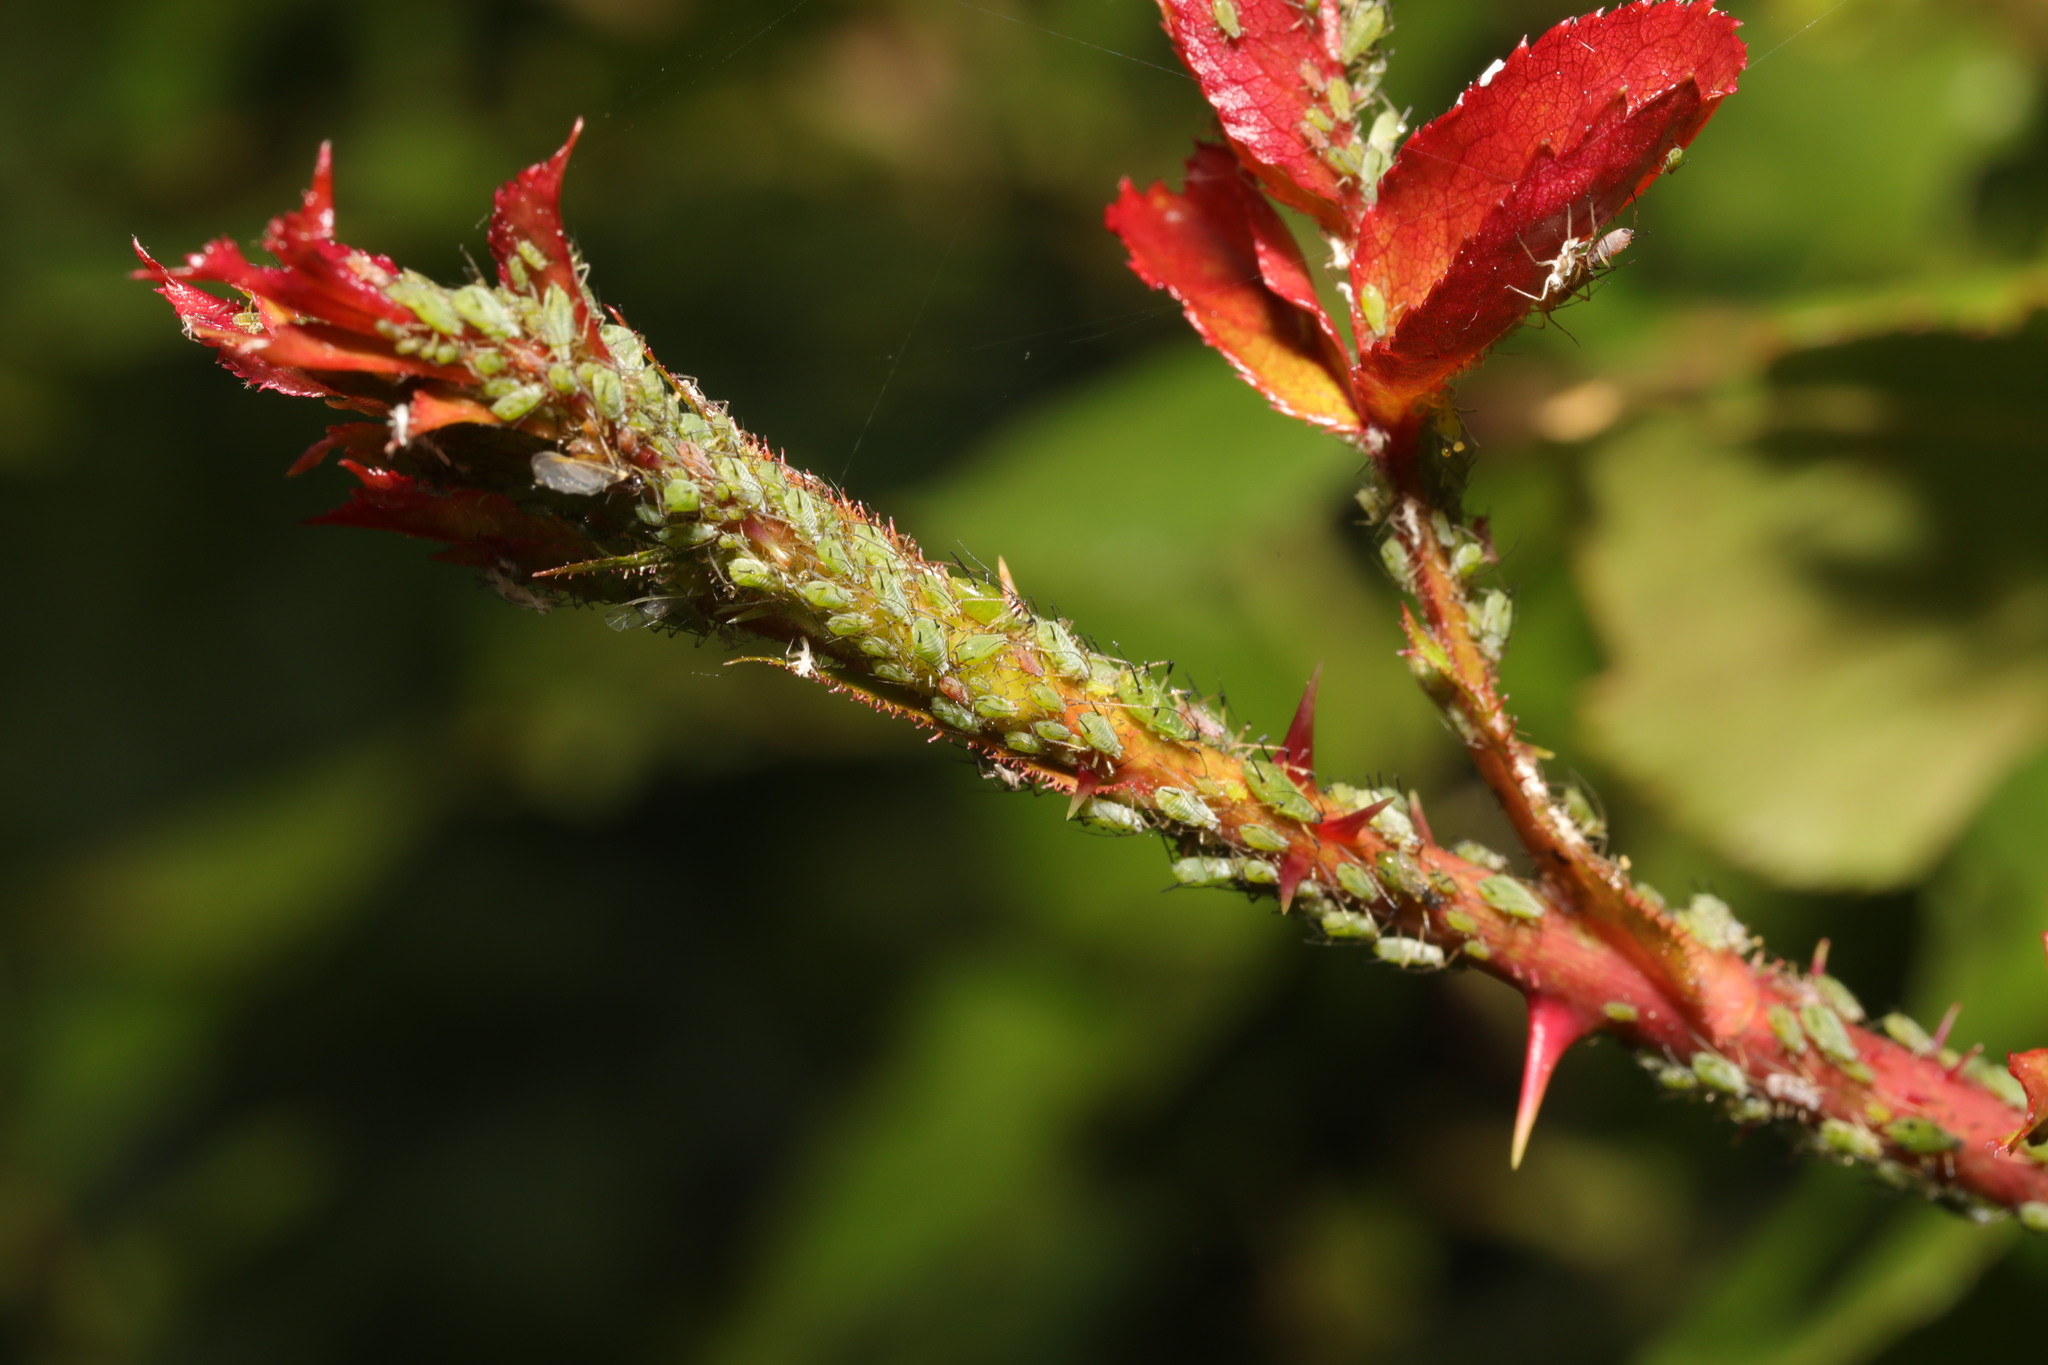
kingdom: Animalia
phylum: Arthropoda
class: Insecta
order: Hemiptera
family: Aphididae
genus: Macrosiphum
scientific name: Macrosiphum rosae
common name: Rose aphid
